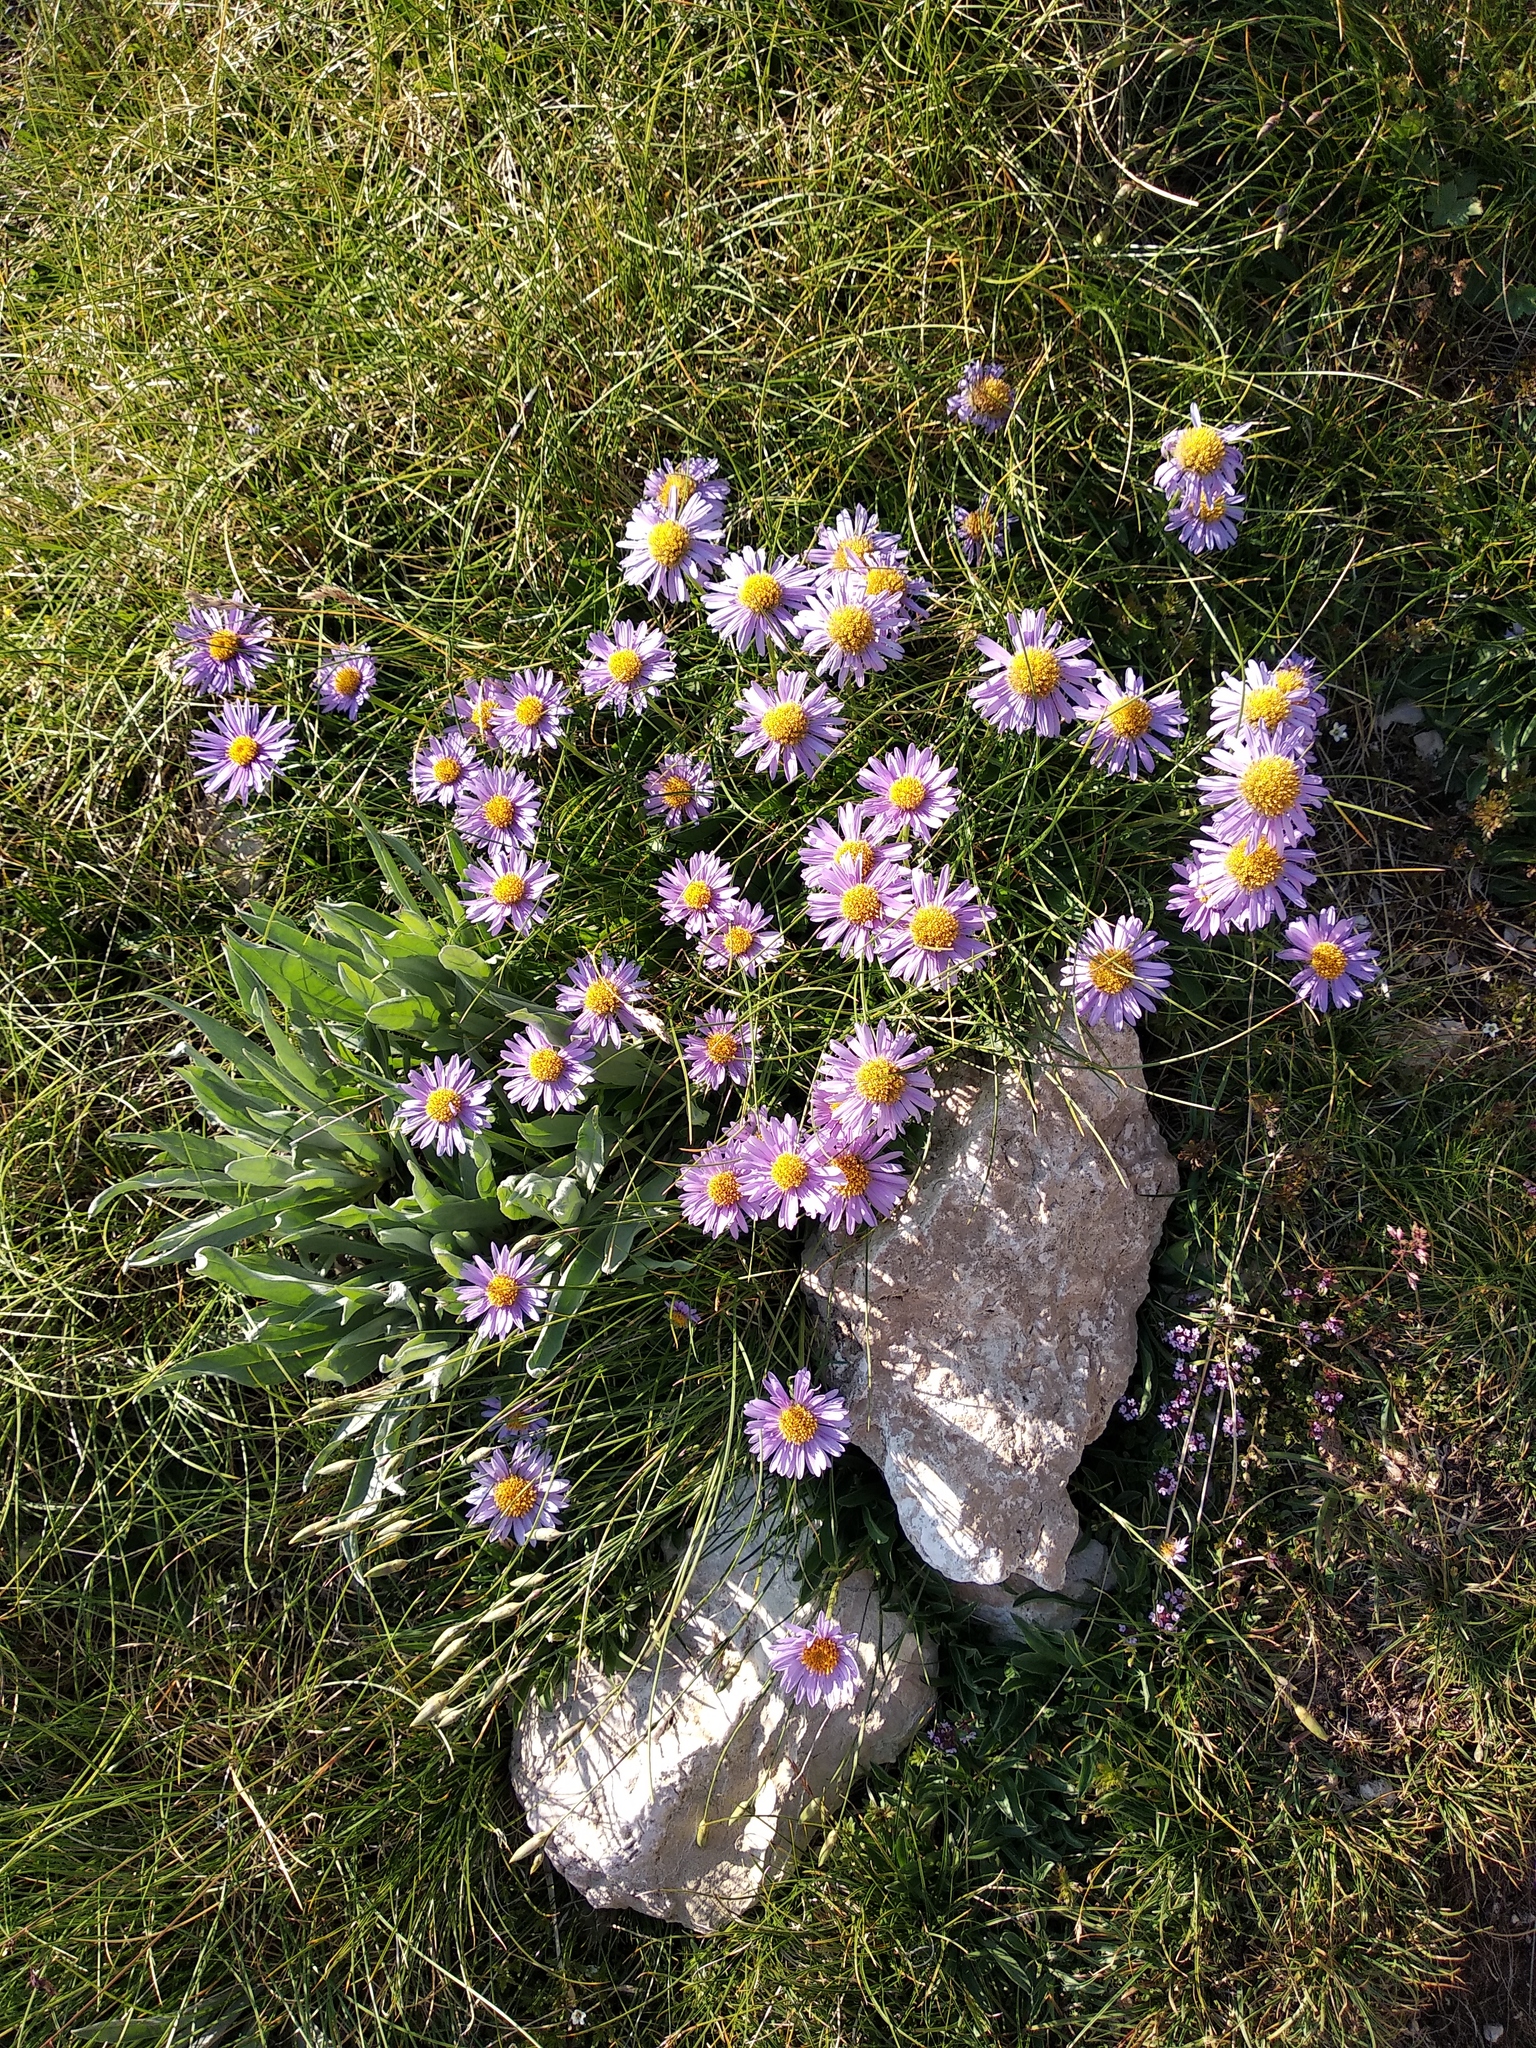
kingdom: Plantae
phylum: Tracheophyta
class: Magnoliopsida
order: Asterales
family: Asteraceae
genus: Aster
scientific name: Aster alpinus
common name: Alpine aster
